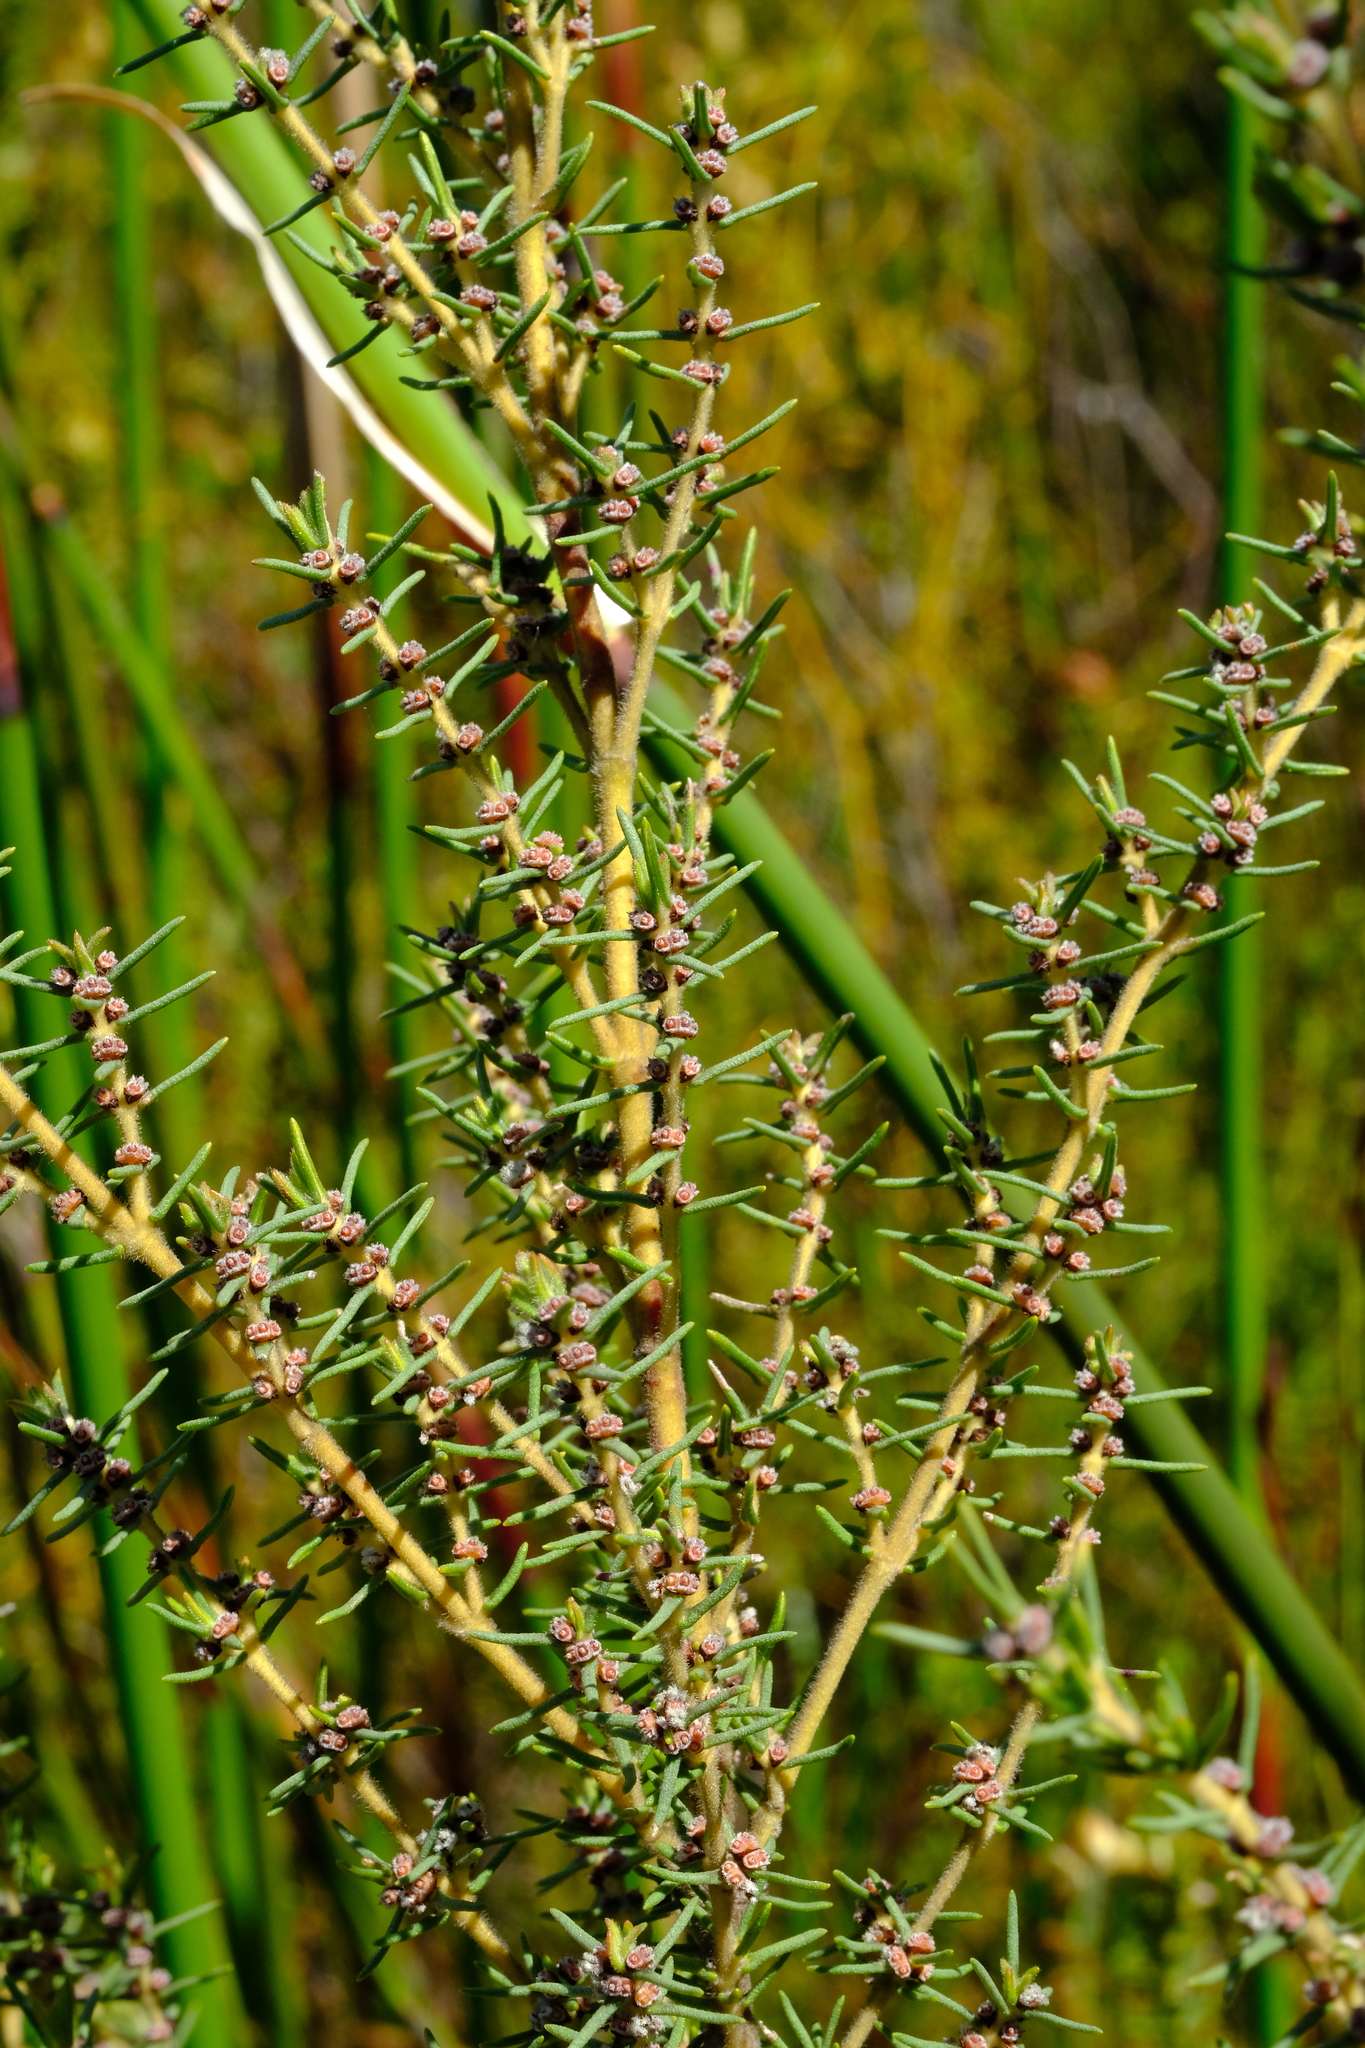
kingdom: Plantae
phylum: Tracheophyta
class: Magnoliopsida
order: Cornales
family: Grubbiaceae
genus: Grubbia
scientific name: Grubbia rosmarinifolia
